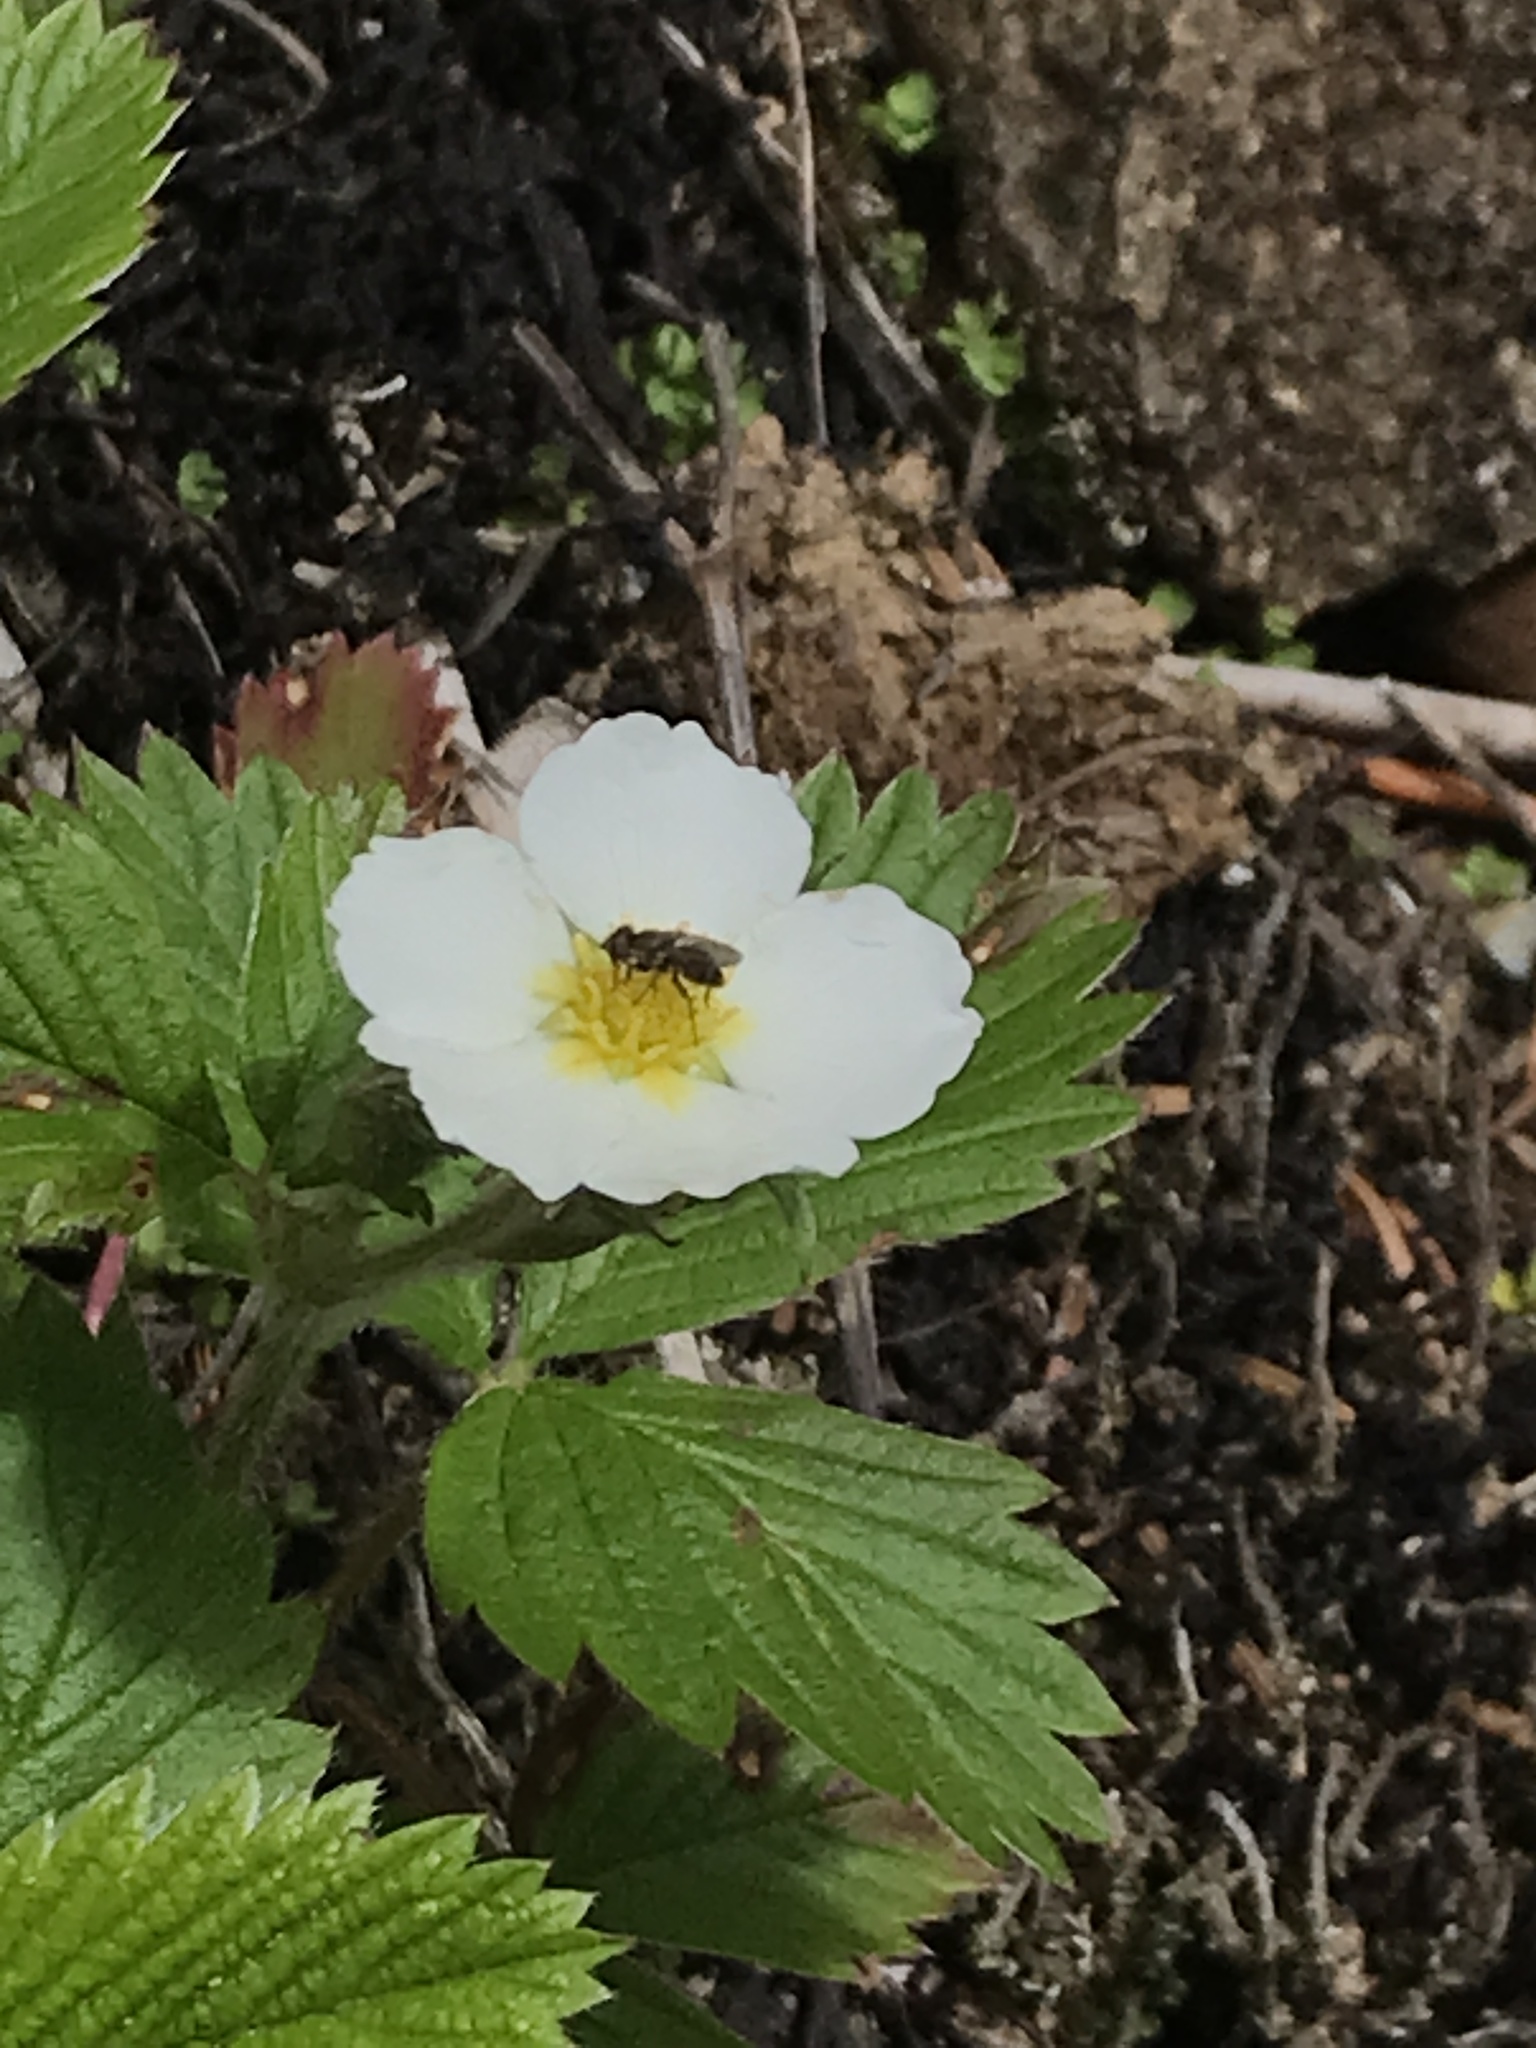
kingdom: Plantae
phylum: Tracheophyta
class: Magnoliopsida
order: Rosales
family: Rosaceae
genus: Fragaria
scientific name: Fragaria vesca
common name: Wild strawberry
